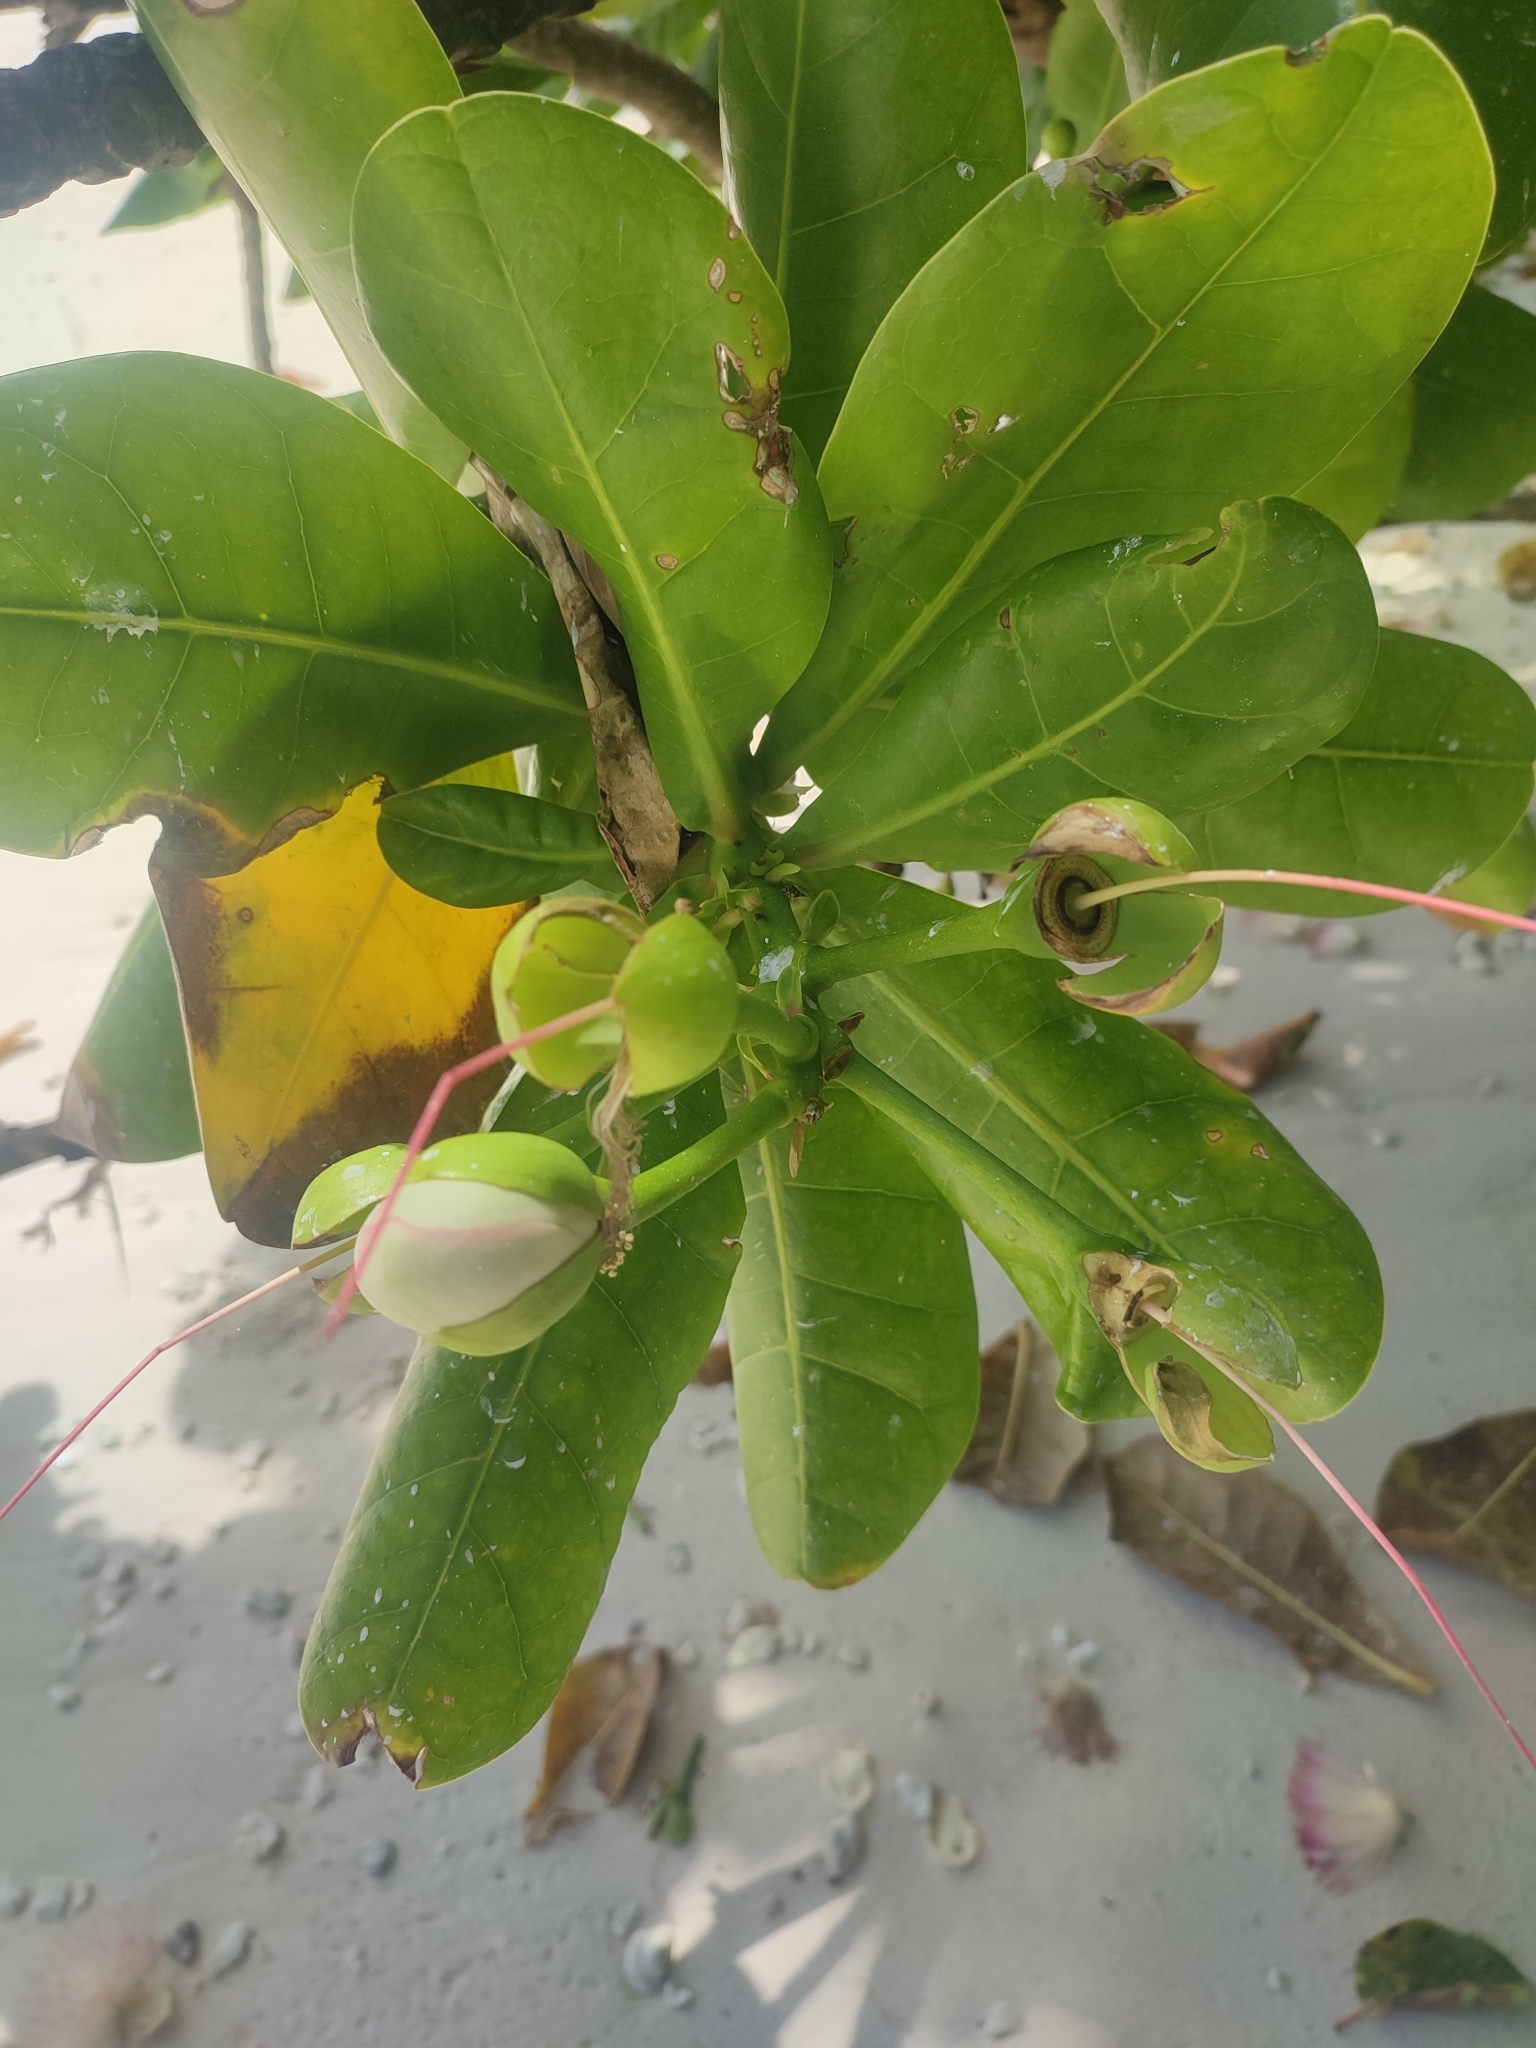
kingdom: Plantae
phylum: Tracheophyta
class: Magnoliopsida
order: Ericales
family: Lecythidaceae
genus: Barringtonia
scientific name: Barringtonia asiatica
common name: Mango-pine
